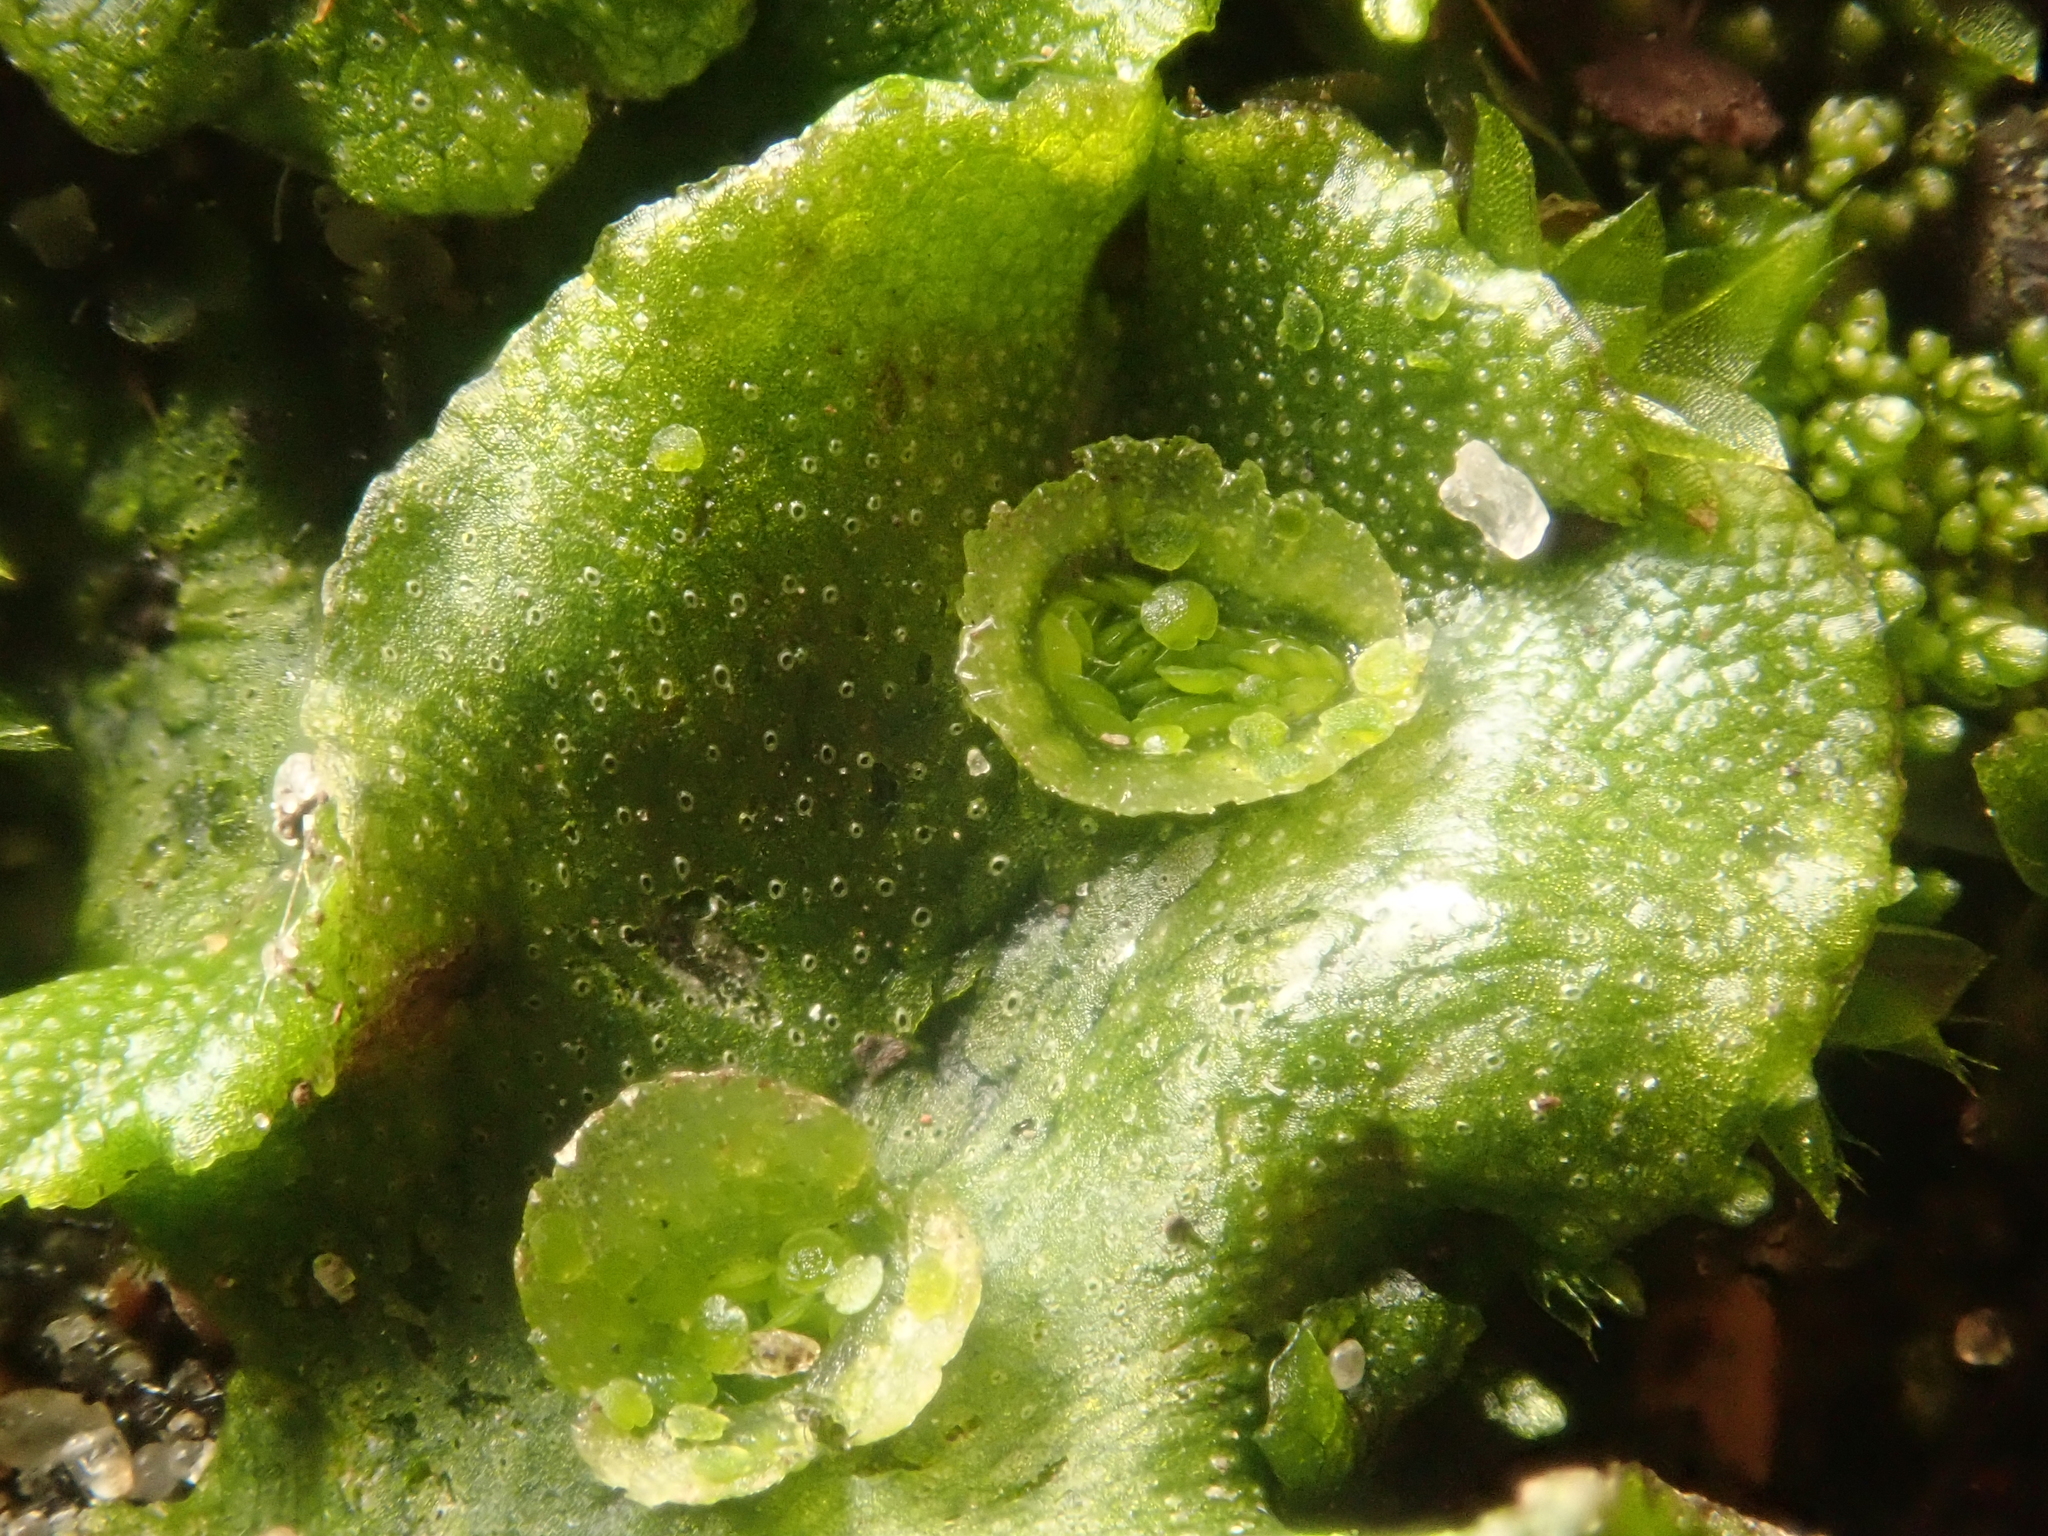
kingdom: Plantae
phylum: Marchantiophyta
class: Marchantiopsida
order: Marchantiales
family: Marchantiaceae
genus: Marchantia
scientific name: Marchantia polymorpha
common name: Common liverwort
